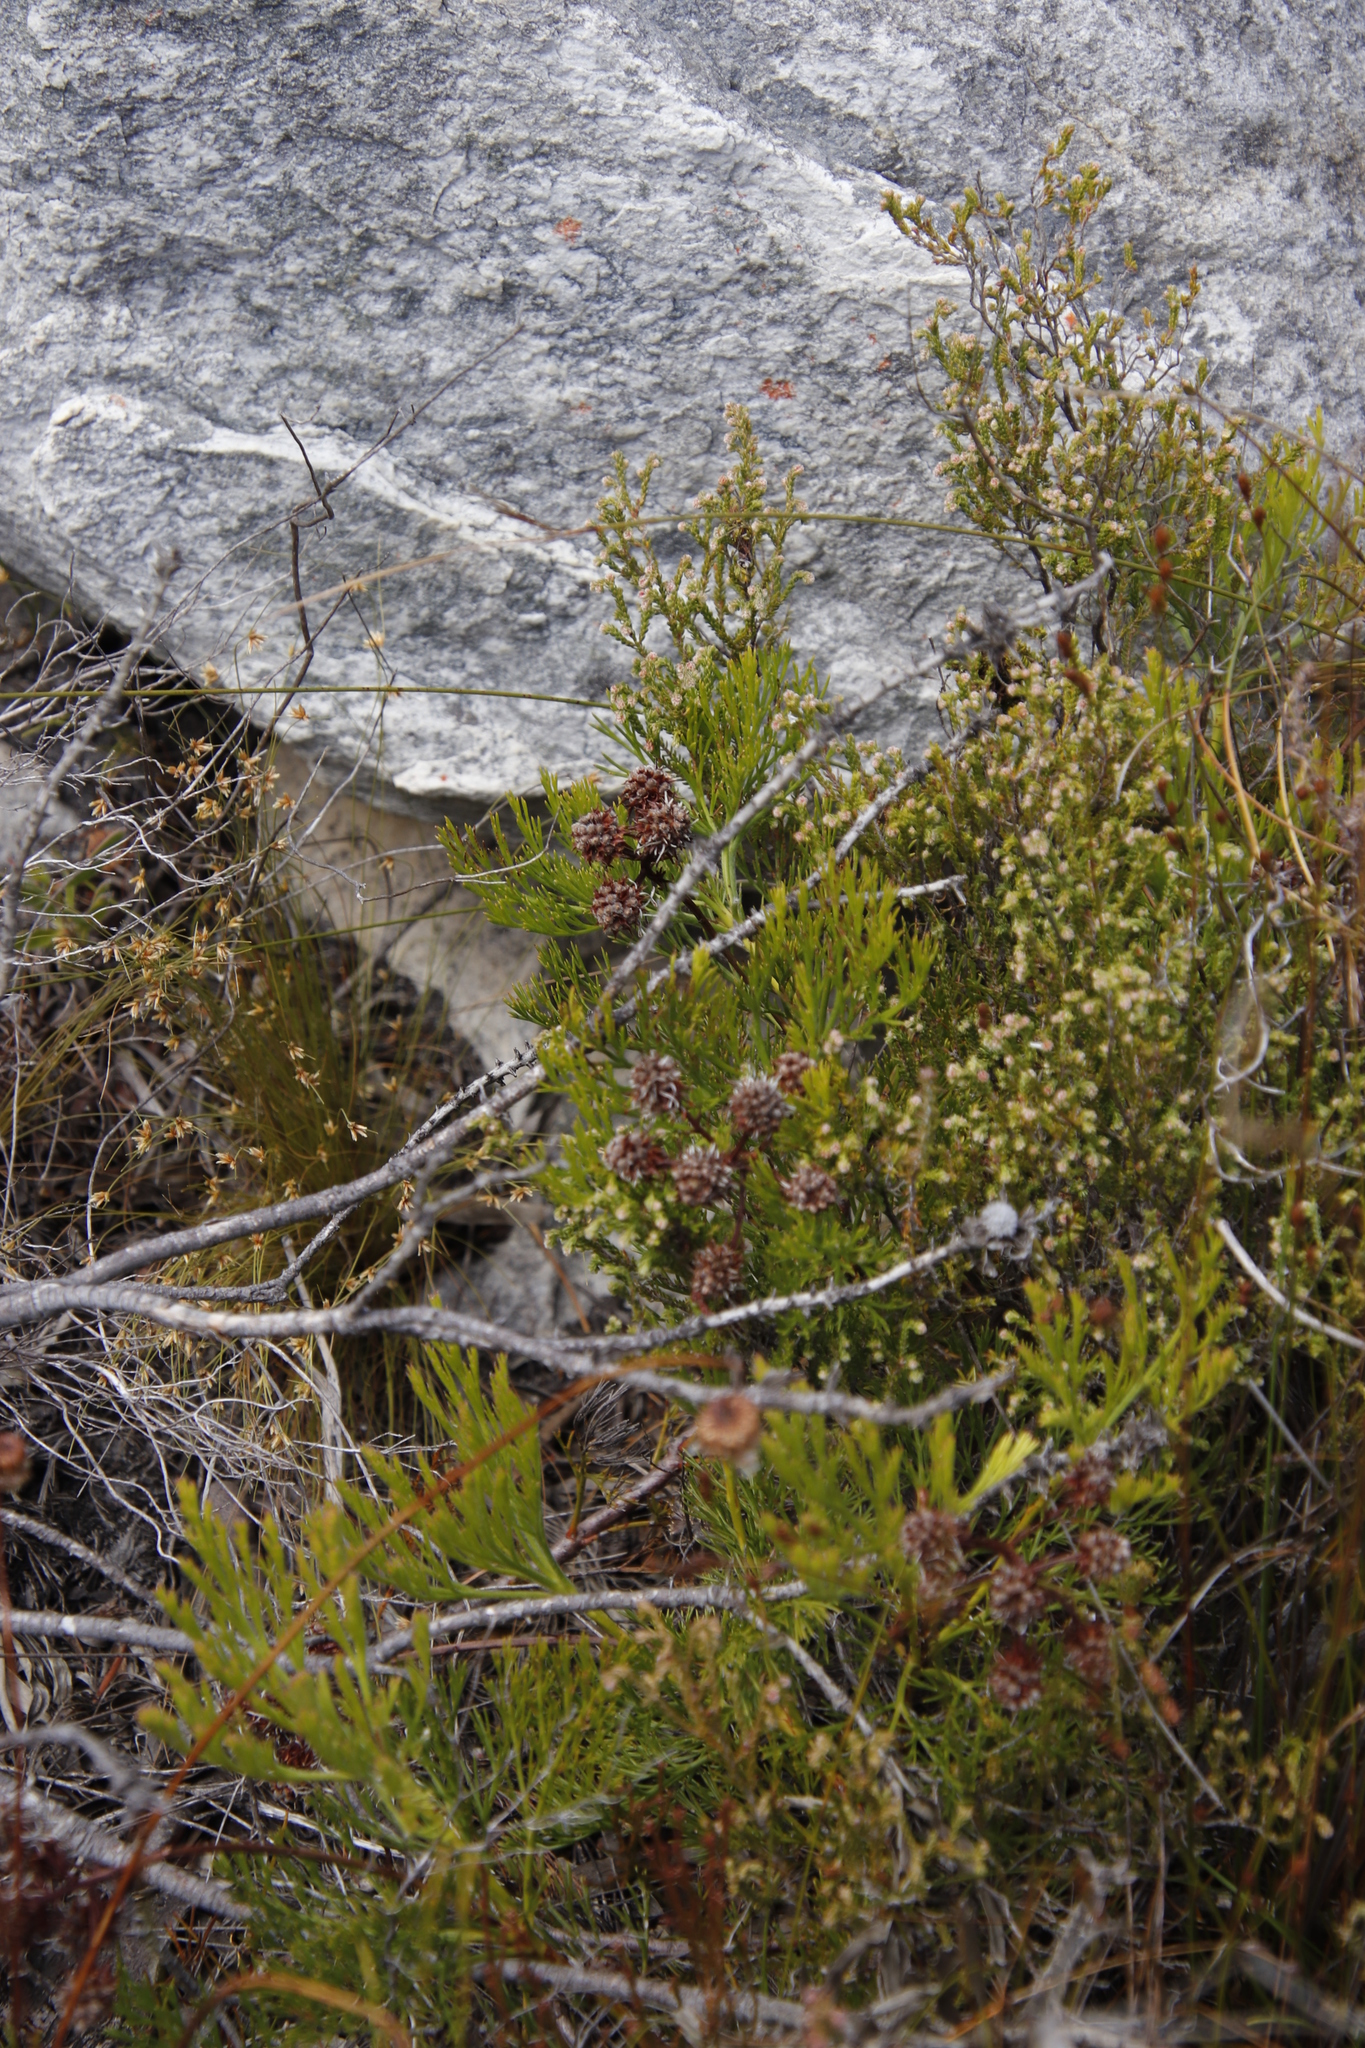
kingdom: Plantae
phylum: Tracheophyta
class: Magnoliopsida
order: Proteales
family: Proteaceae
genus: Serruria
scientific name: Serruria elongata
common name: Long-stalk spiderhead
